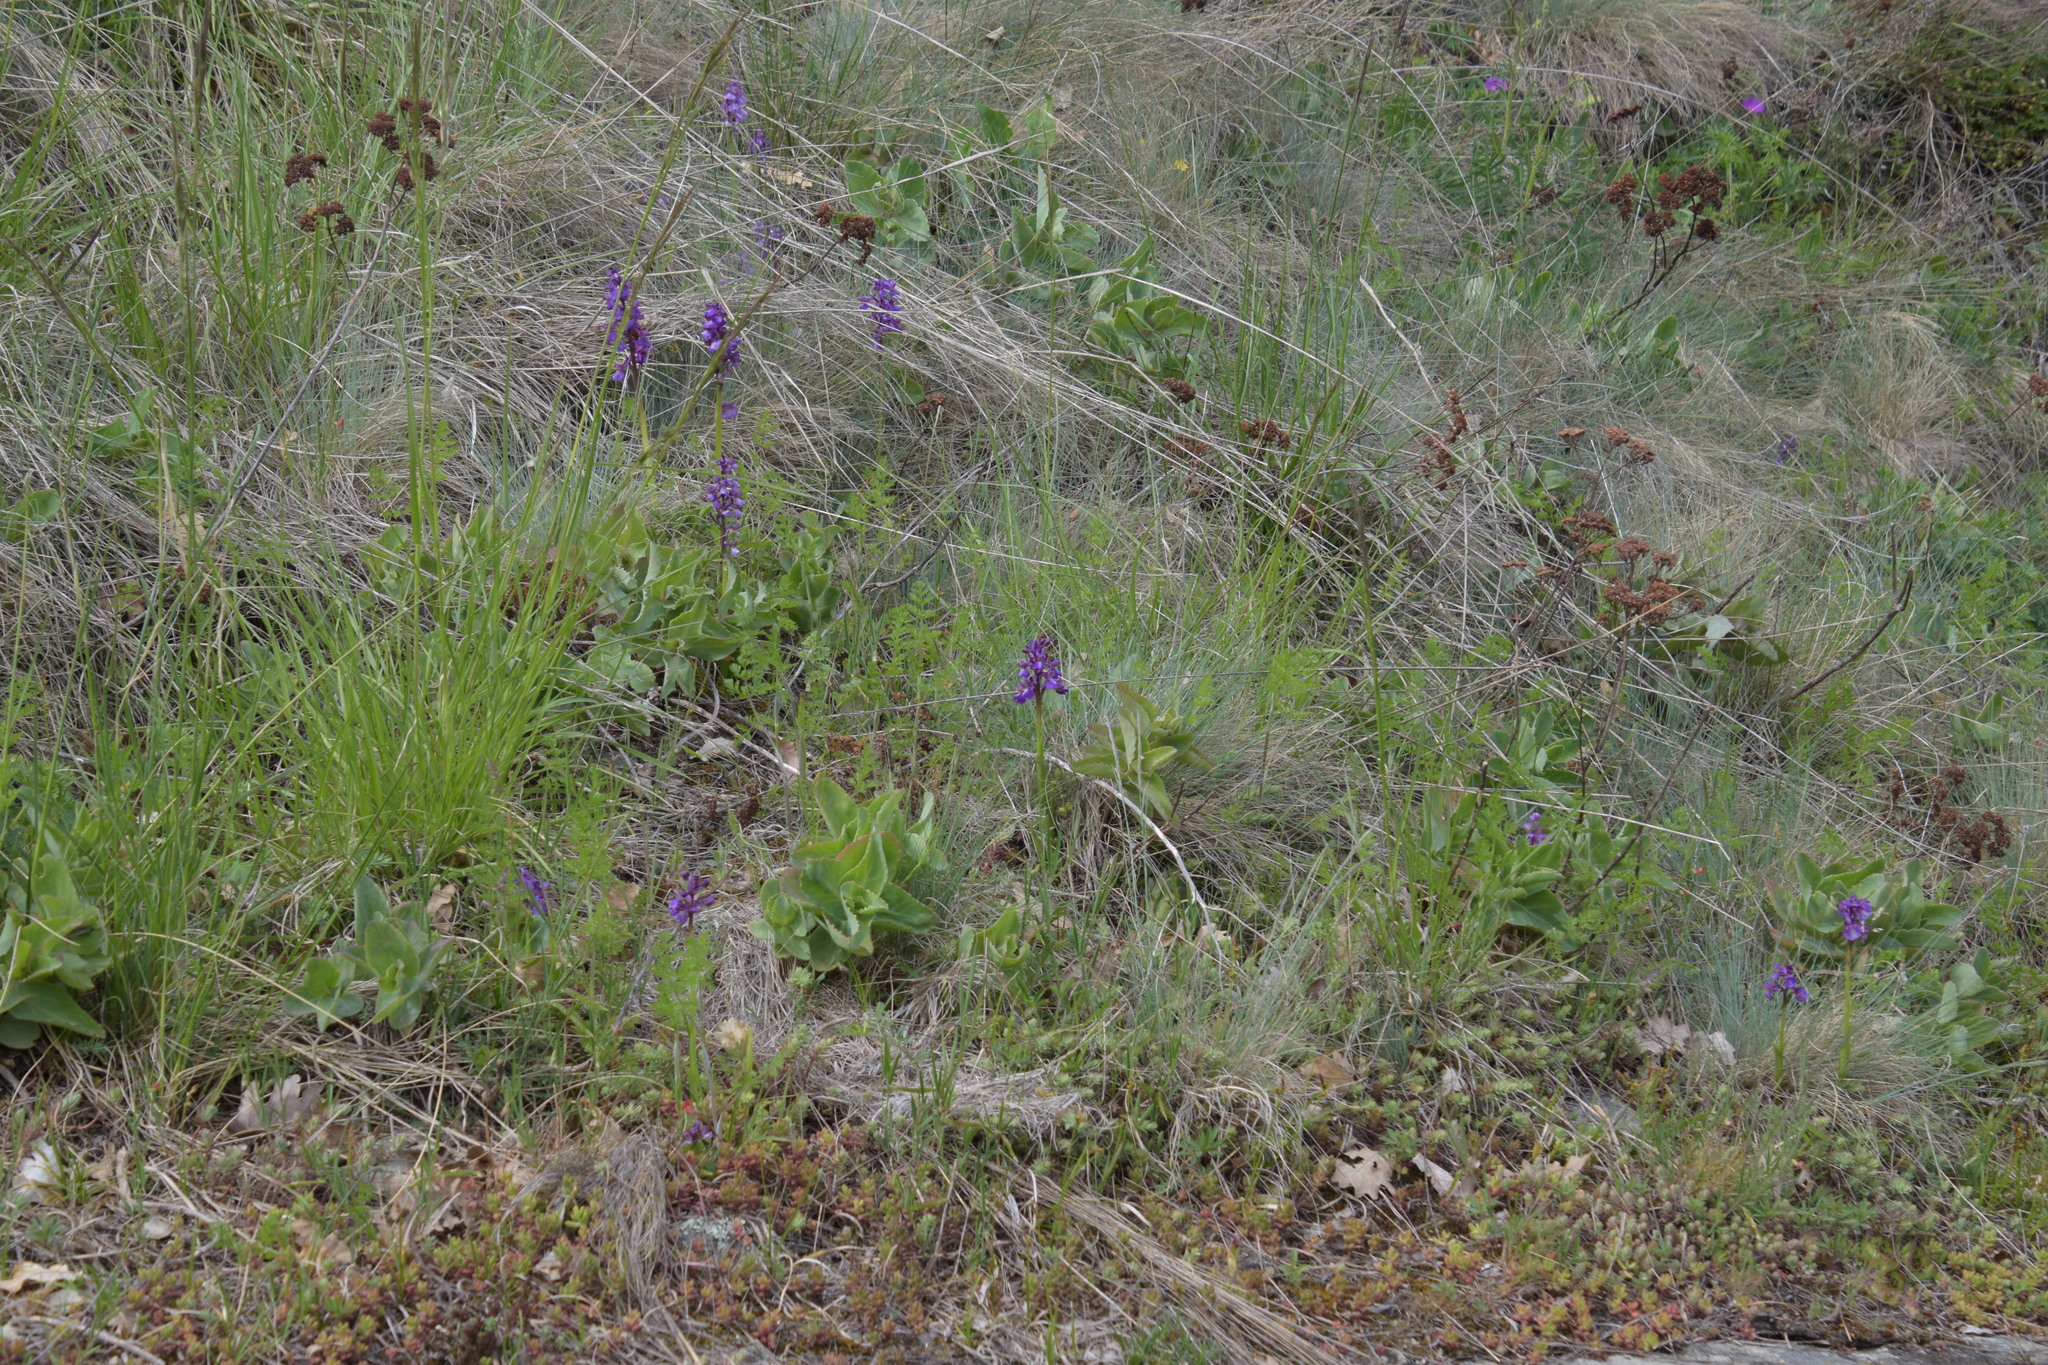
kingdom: Plantae
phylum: Tracheophyta
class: Liliopsida
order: Asparagales
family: Orchidaceae
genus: Anacamptis
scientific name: Anacamptis morio
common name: Green-winged orchid
